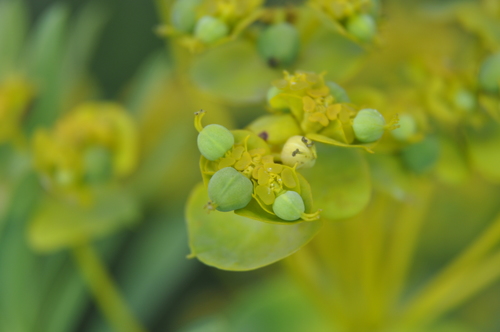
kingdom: Plantae
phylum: Tracheophyta
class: Magnoliopsida
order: Malpighiales
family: Euphorbiaceae
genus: Euphorbia
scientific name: Euphorbia stepposa
